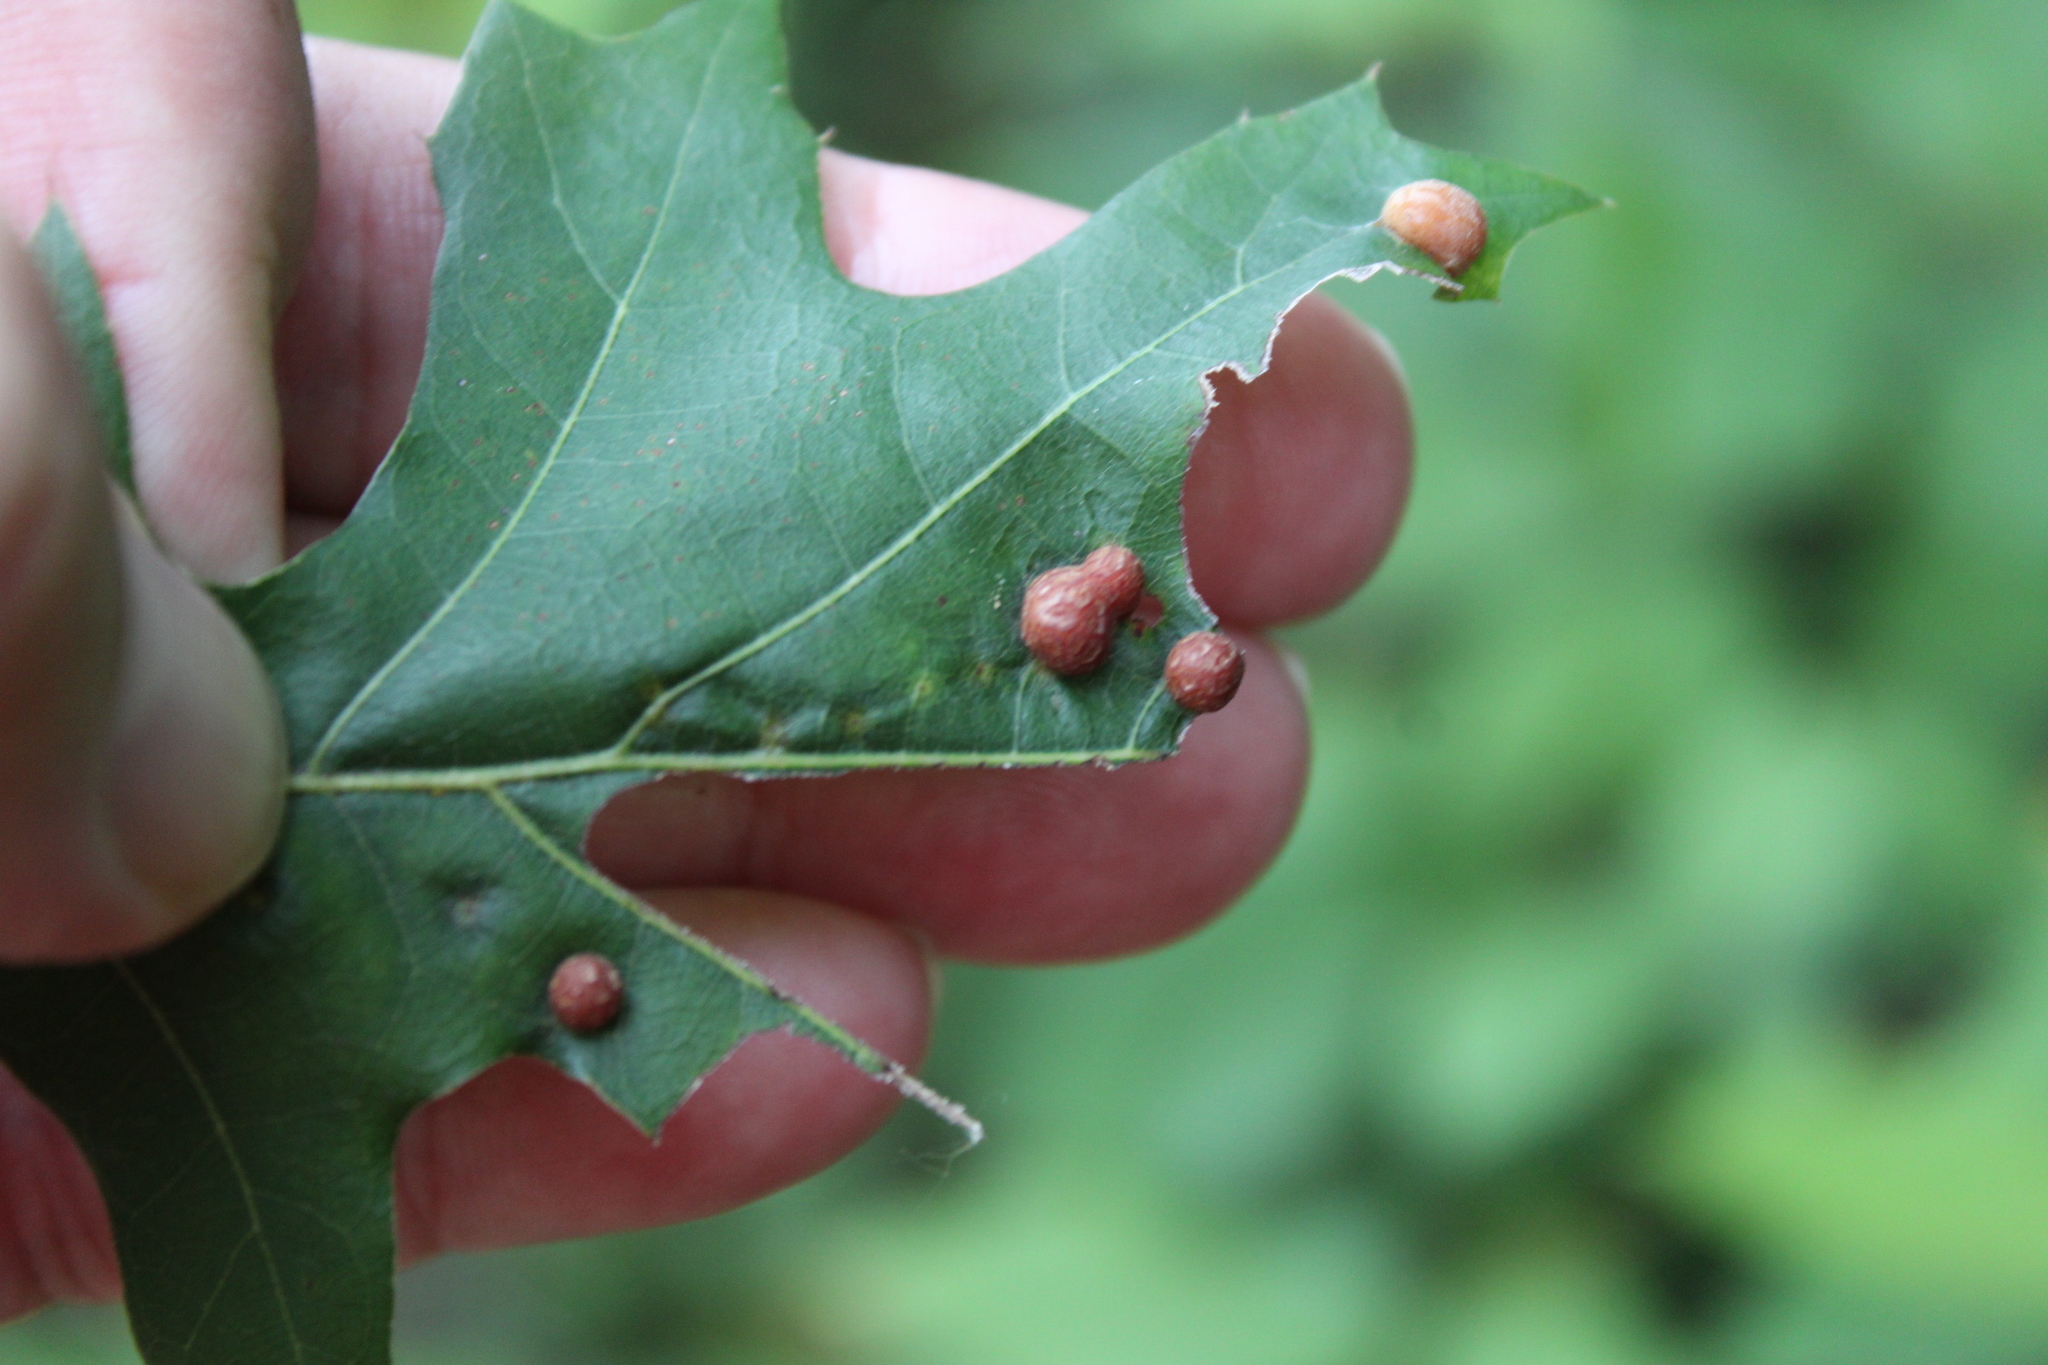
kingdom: Animalia
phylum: Arthropoda
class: Insecta
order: Diptera
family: Cecidomyiidae
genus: Polystepha
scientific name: Polystepha pilulae
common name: Oak leaf gall midge
